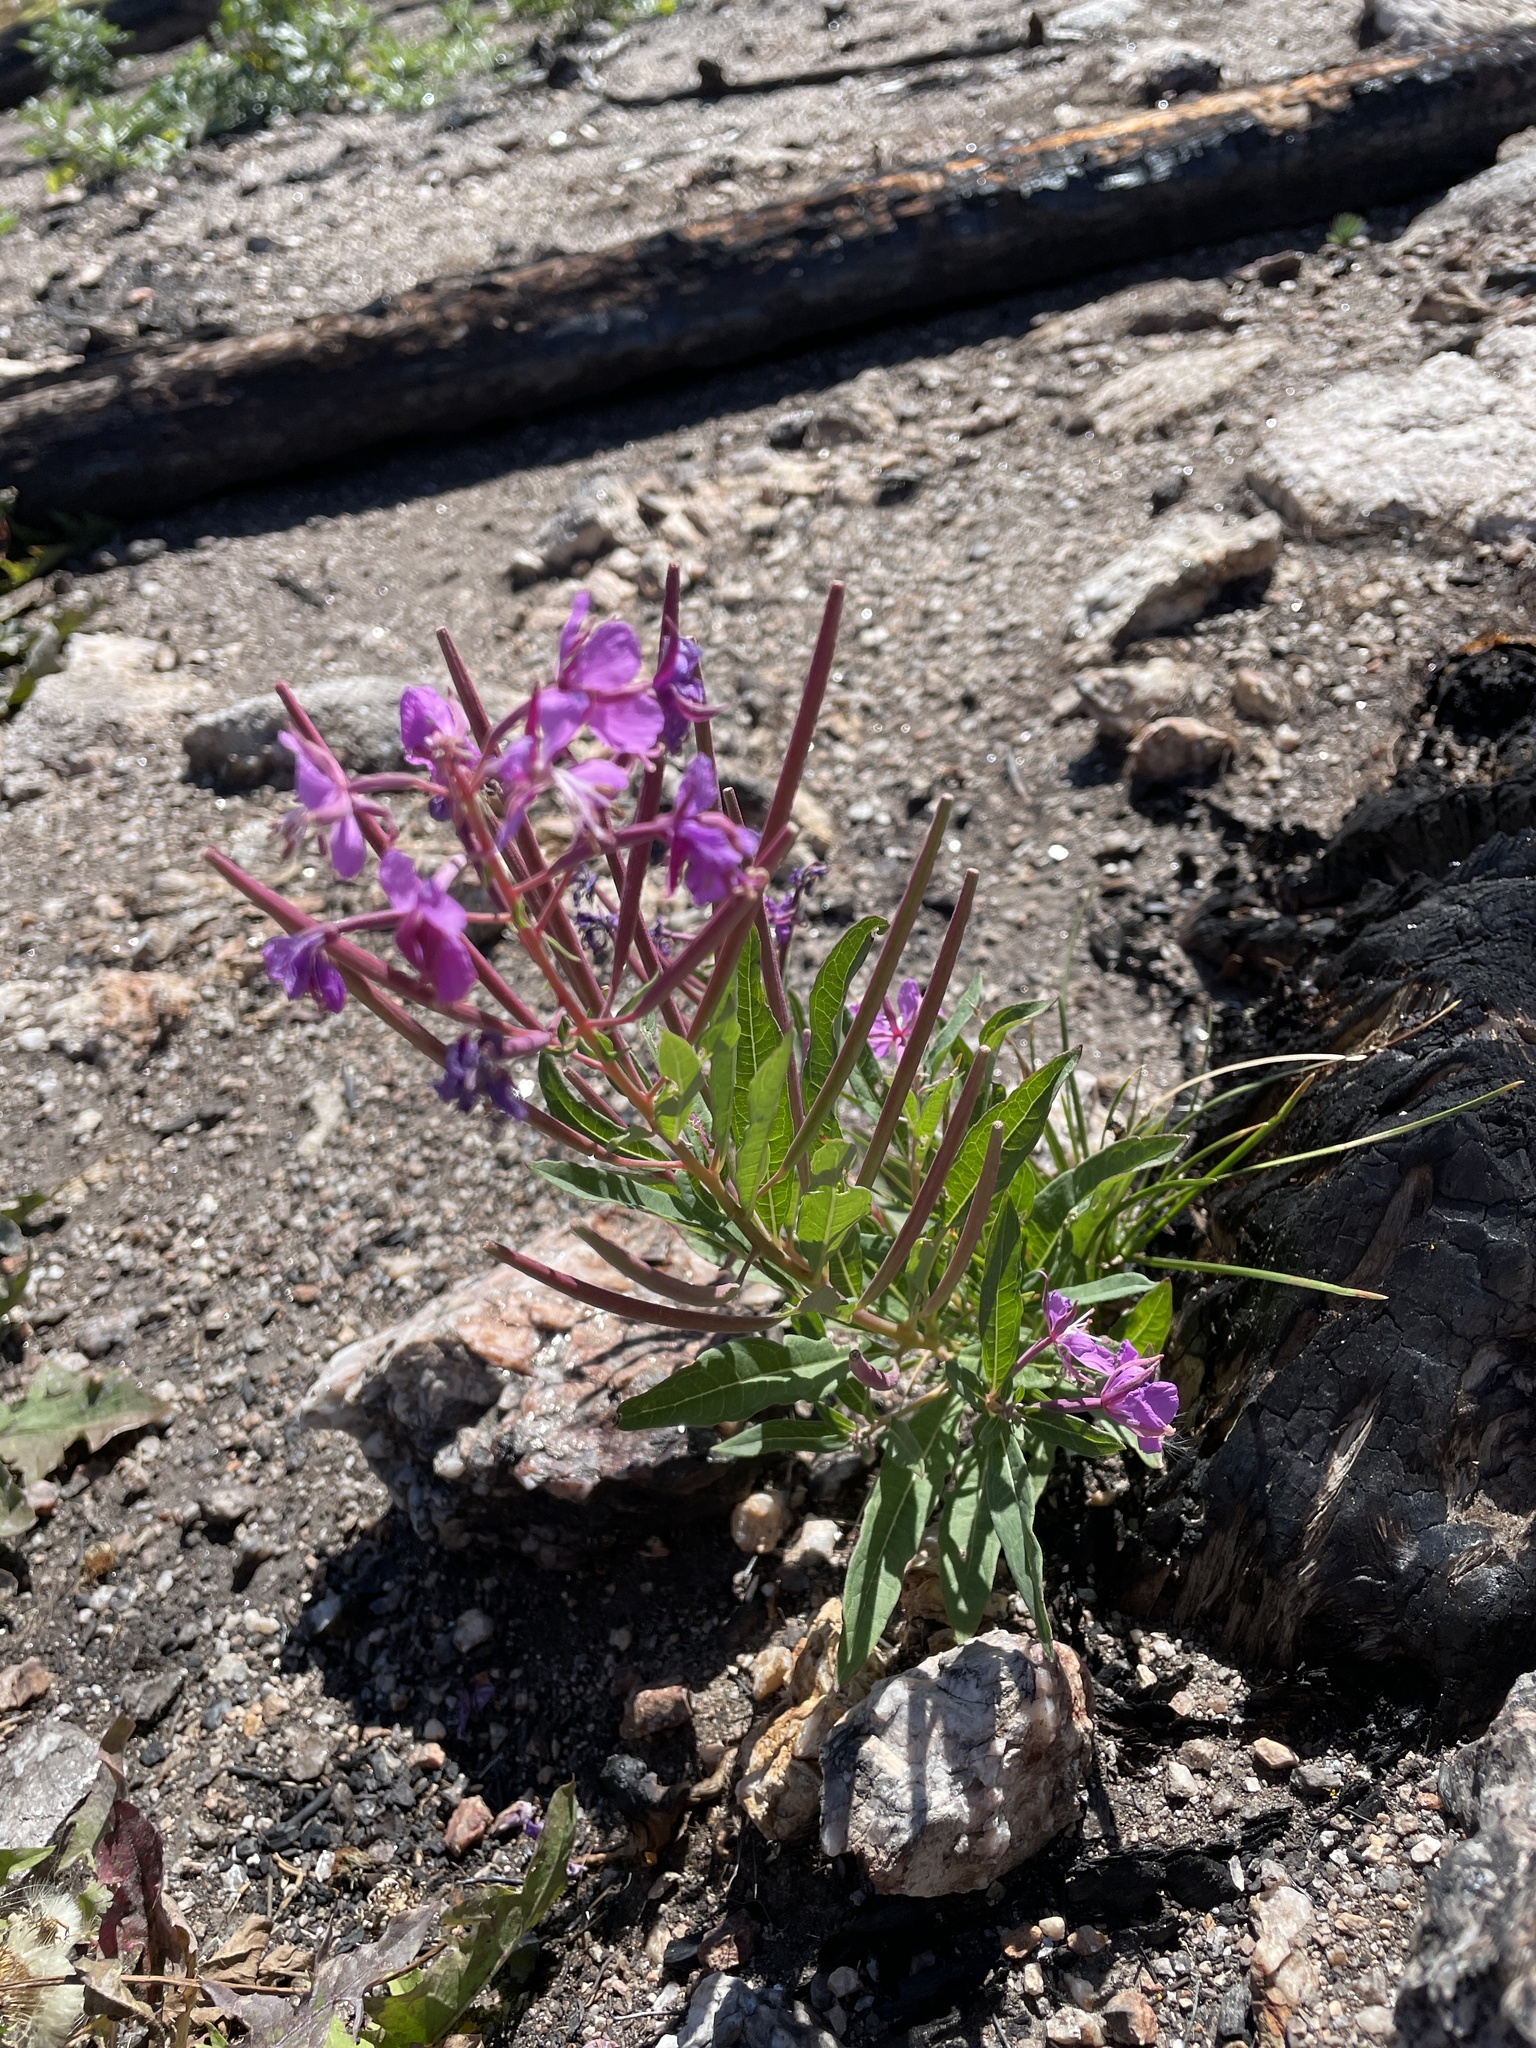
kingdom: Plantae
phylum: Tracheophyta
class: Magnoliopsida
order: Myrtales
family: Onagraceae
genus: Chamaenerion
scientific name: Chamaenerion angustifolium
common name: Fireweed
